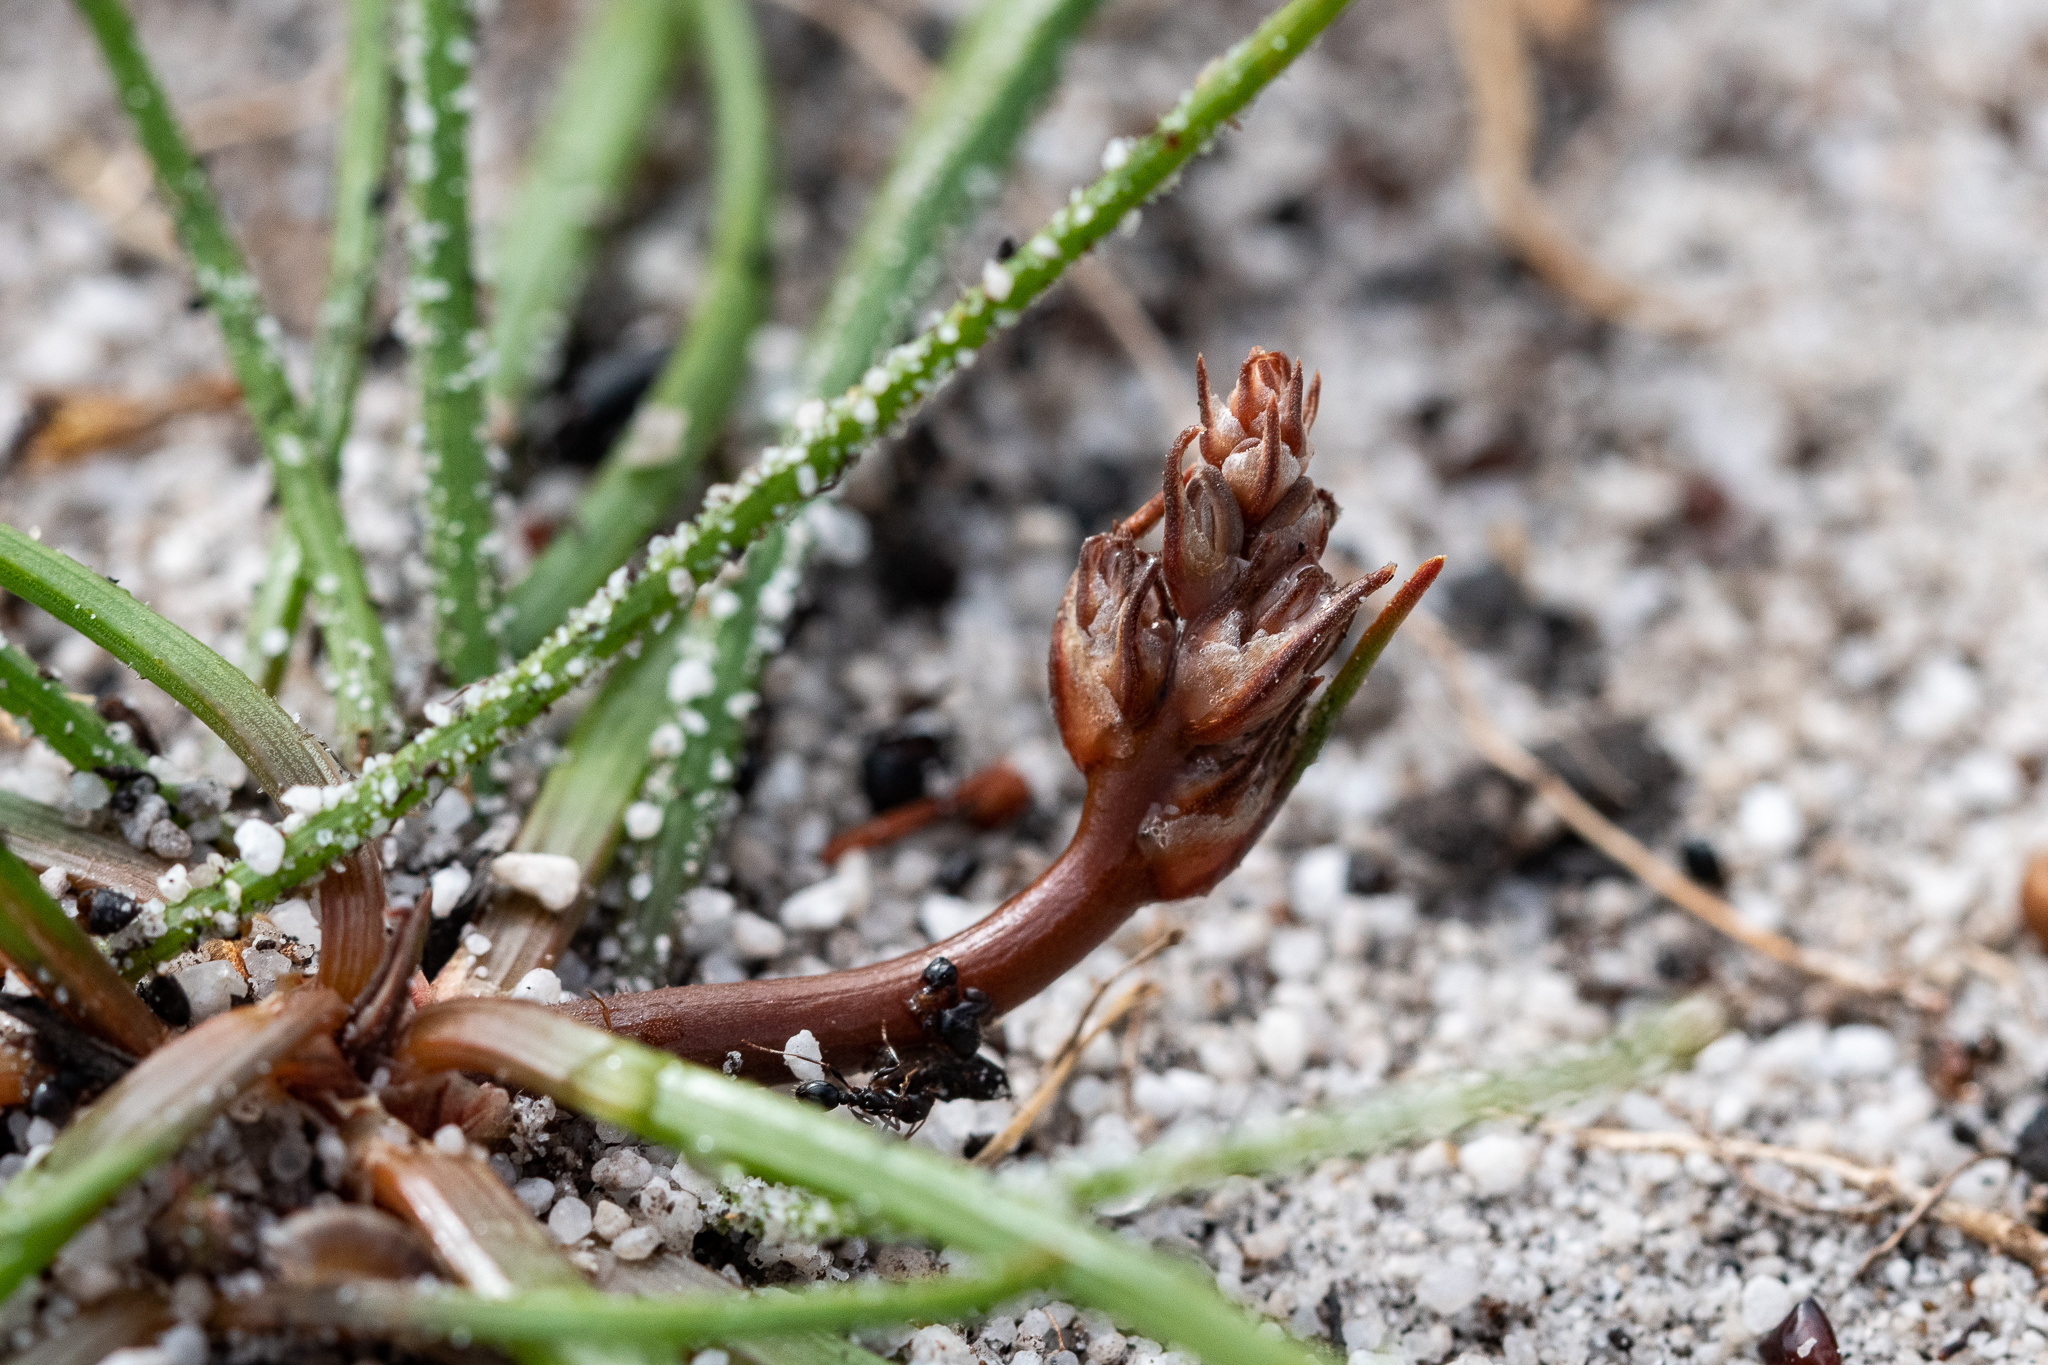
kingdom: Plantae
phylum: Tracheophyta
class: Liliopsida
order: Asparagales
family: Asphodelaceae
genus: Trachyandra
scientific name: Trachyandra divaricata
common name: Dune onionweed
